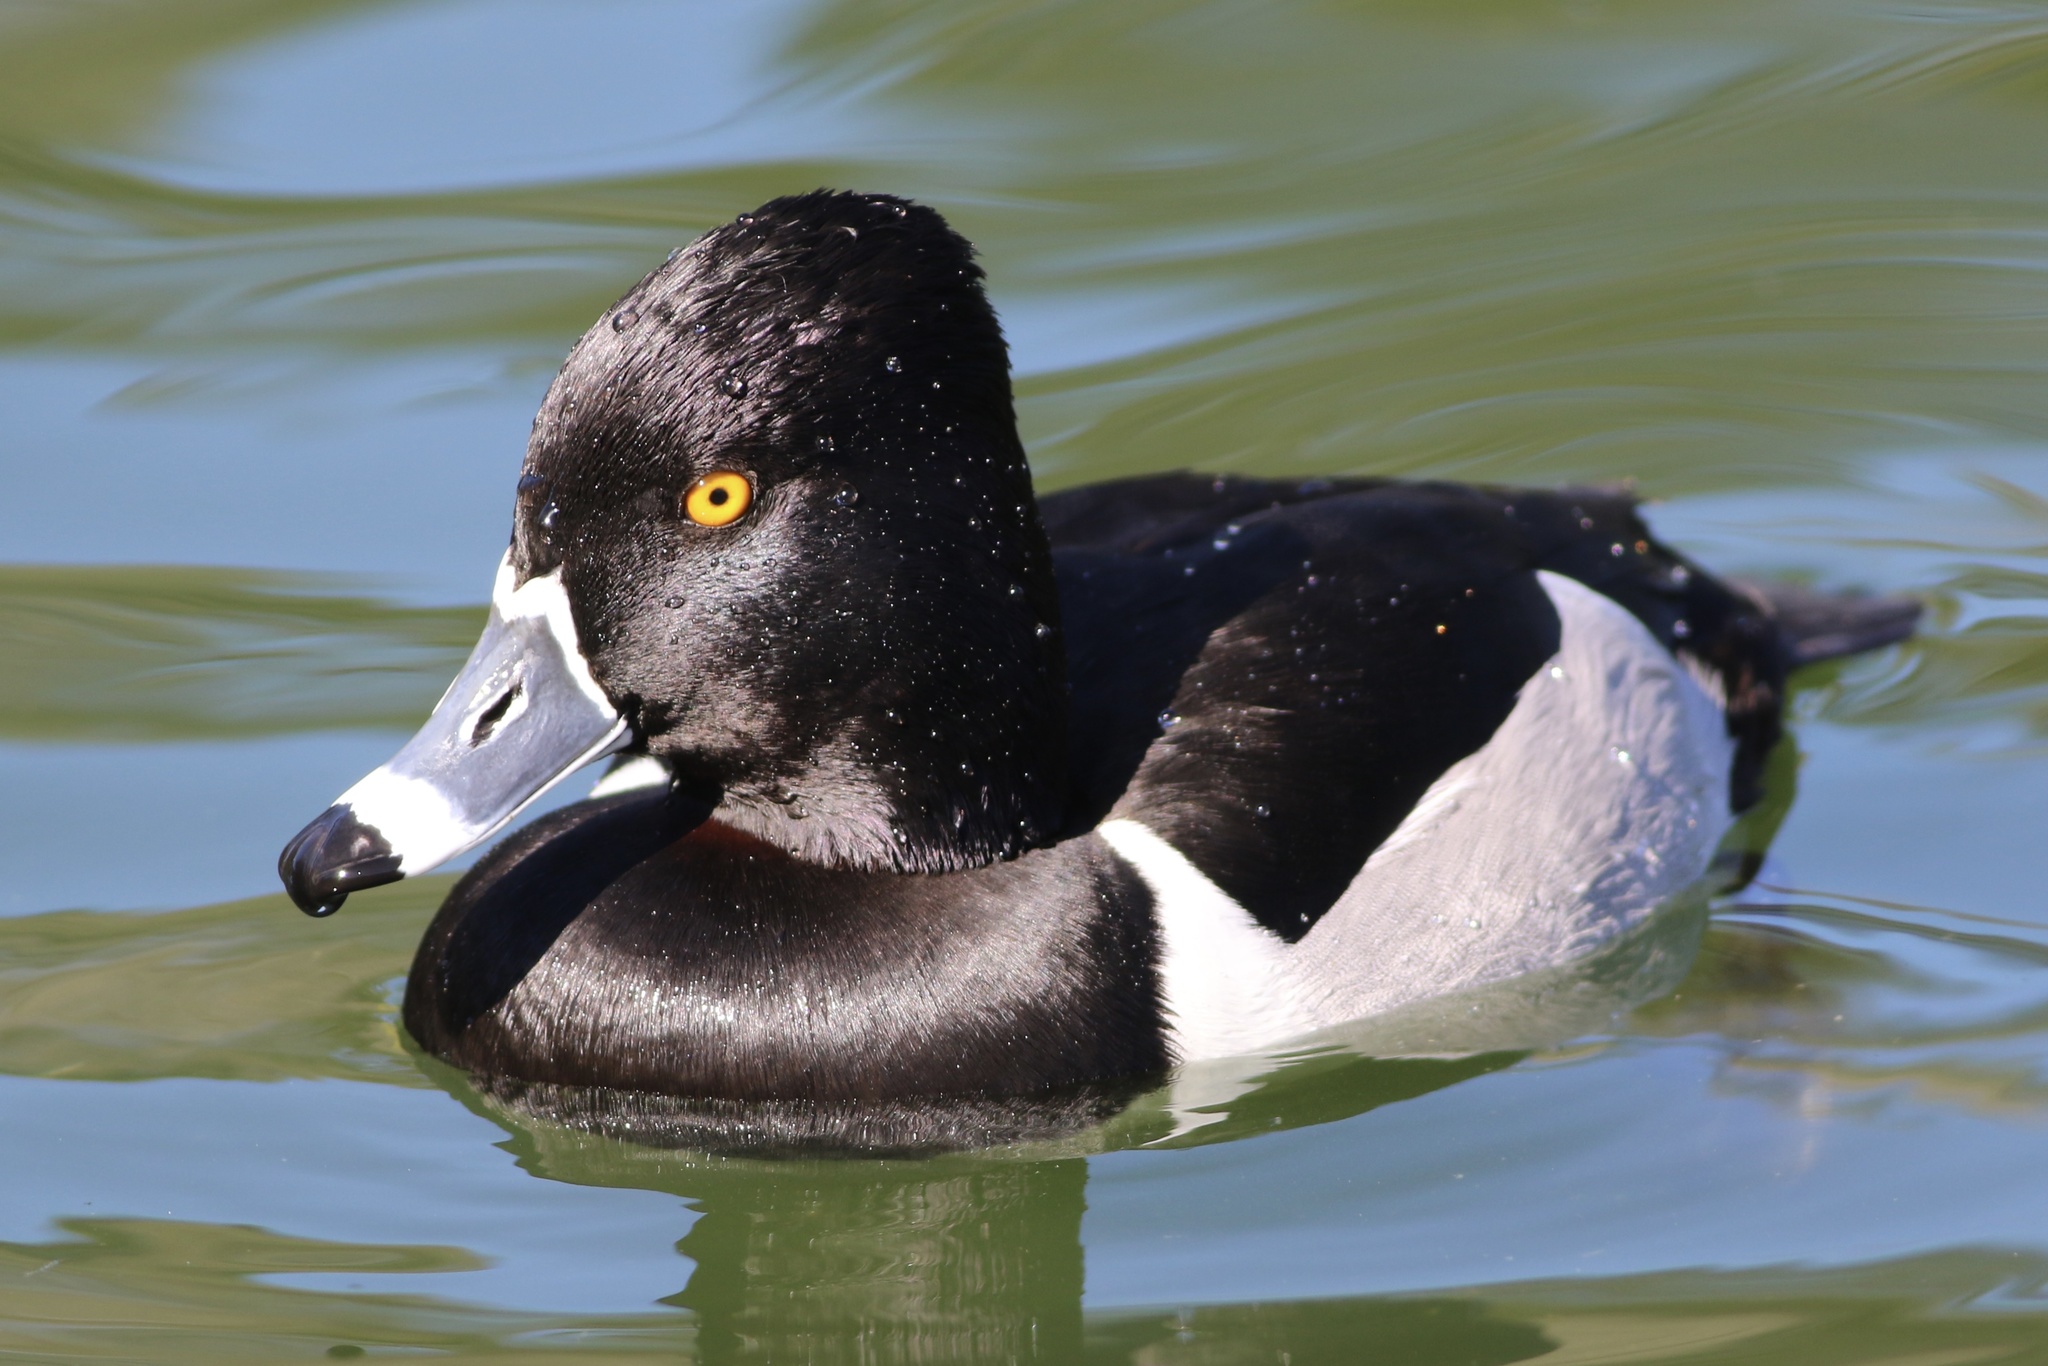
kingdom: Animalia
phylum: Chordata
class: Aves
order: Anseriformes
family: Anatidae
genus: Aythya
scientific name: Aythya collaris
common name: Ring-necked duck
